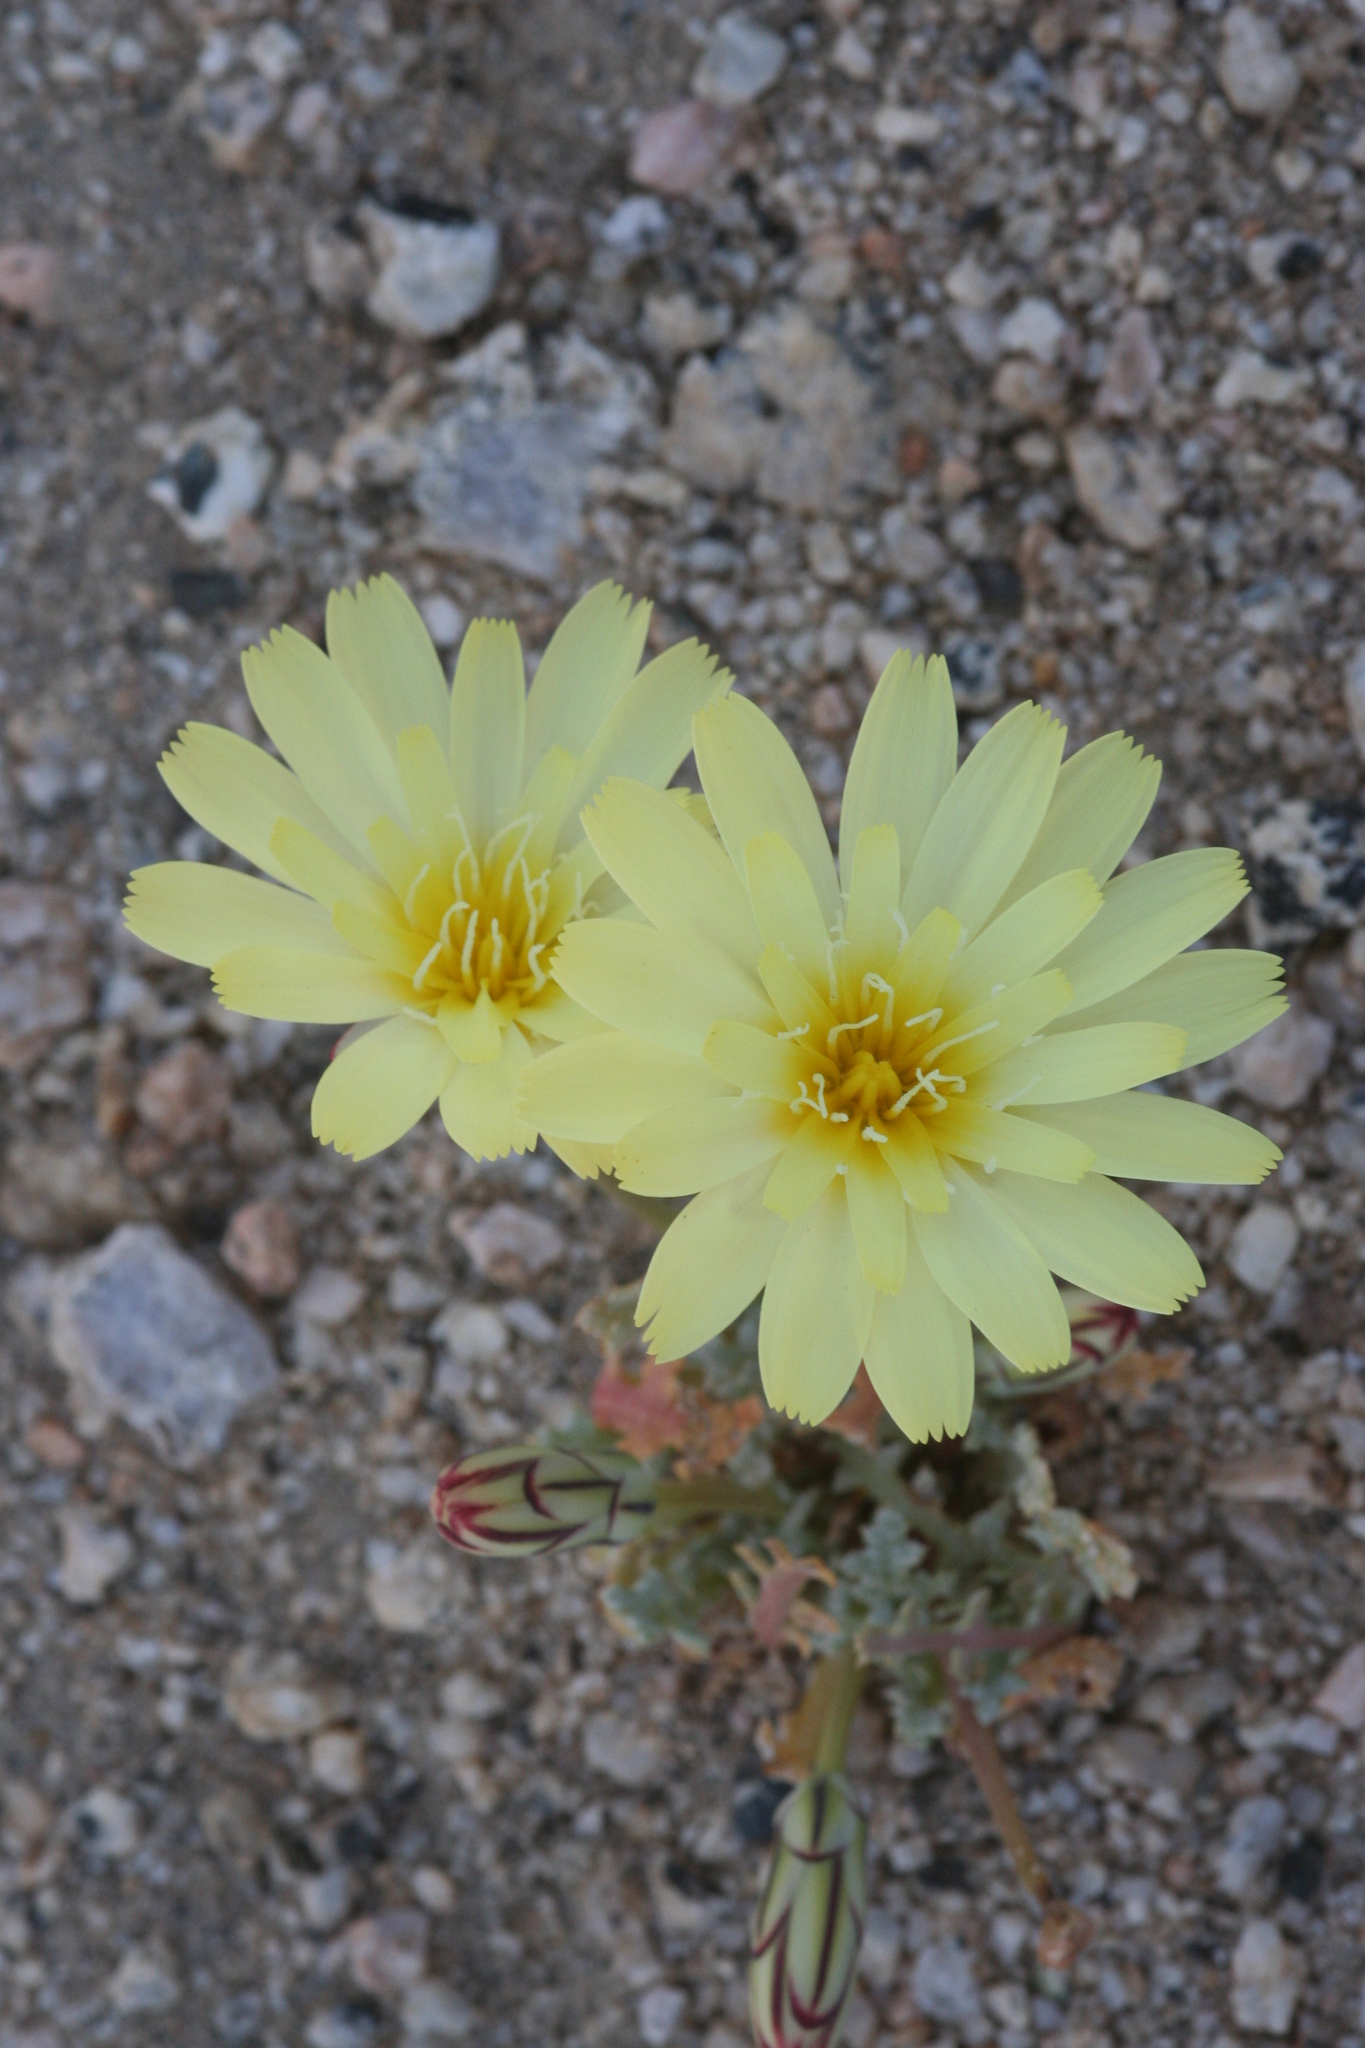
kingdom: Plantae
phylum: Tracheophyta
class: Magnoliopsida
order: Asterales
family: Asteraceae
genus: Anisocoma
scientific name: Anisocoma acaulis
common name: Scalebud
